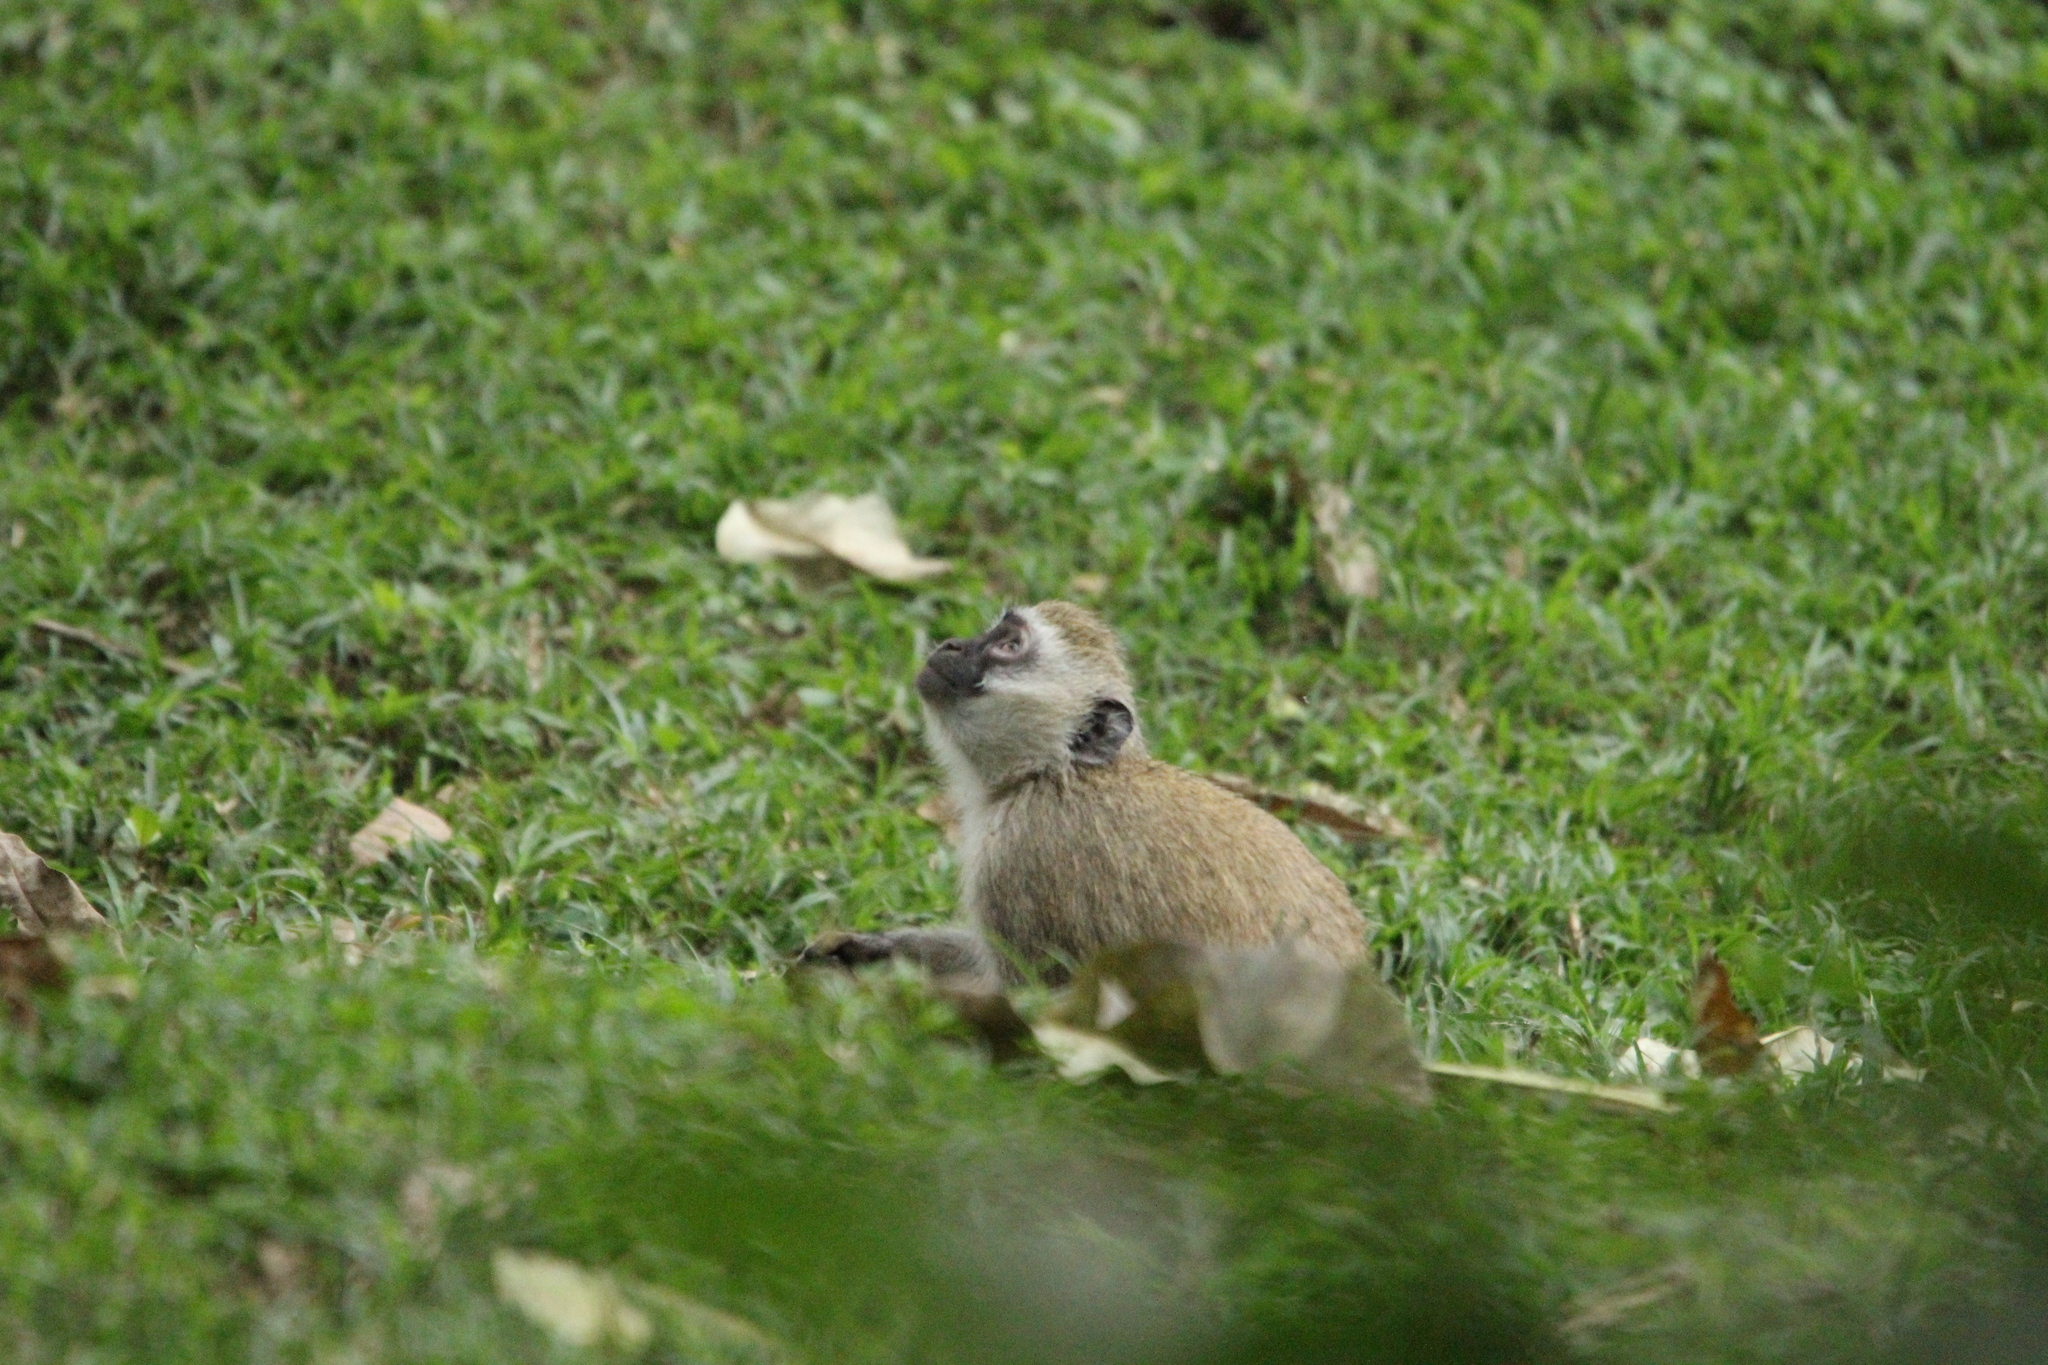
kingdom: Animalia
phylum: Chordata
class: Mammalia
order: Primates
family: Cercopithecidae
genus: Chlorocebus
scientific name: Chlorocebus pygerythrus
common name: Vervet monkey
